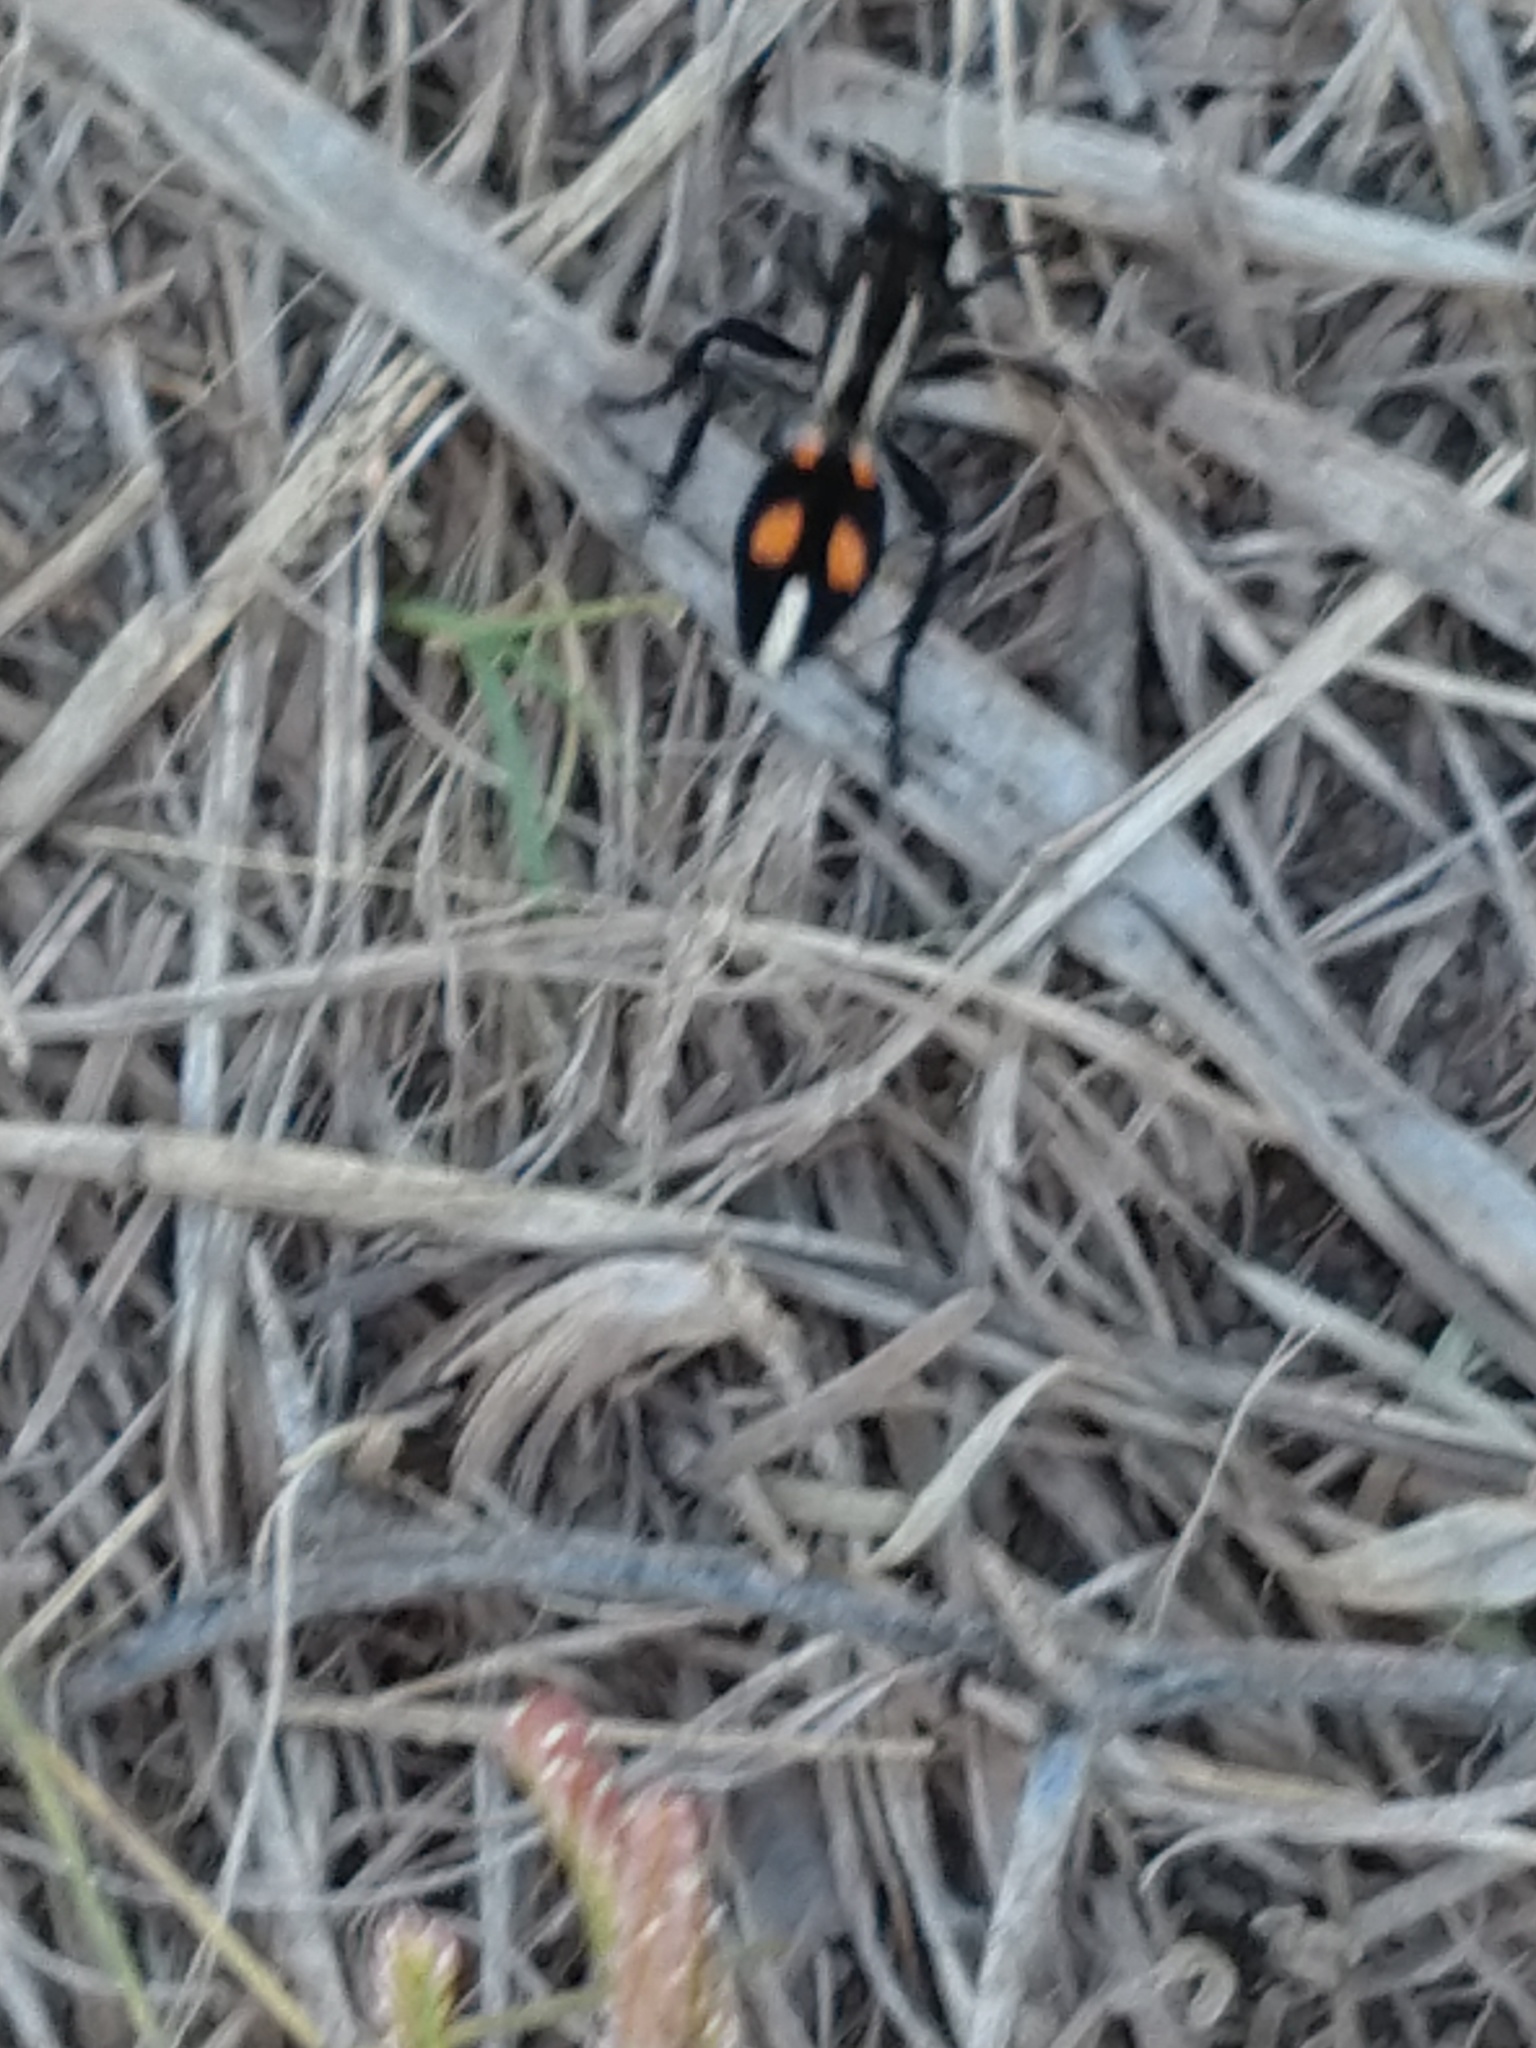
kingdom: Animalia
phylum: Arthropoda
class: Insecta
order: Hymenoptera
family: Mutillidae
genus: Traumatomutilla
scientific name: Traumatomutilla
